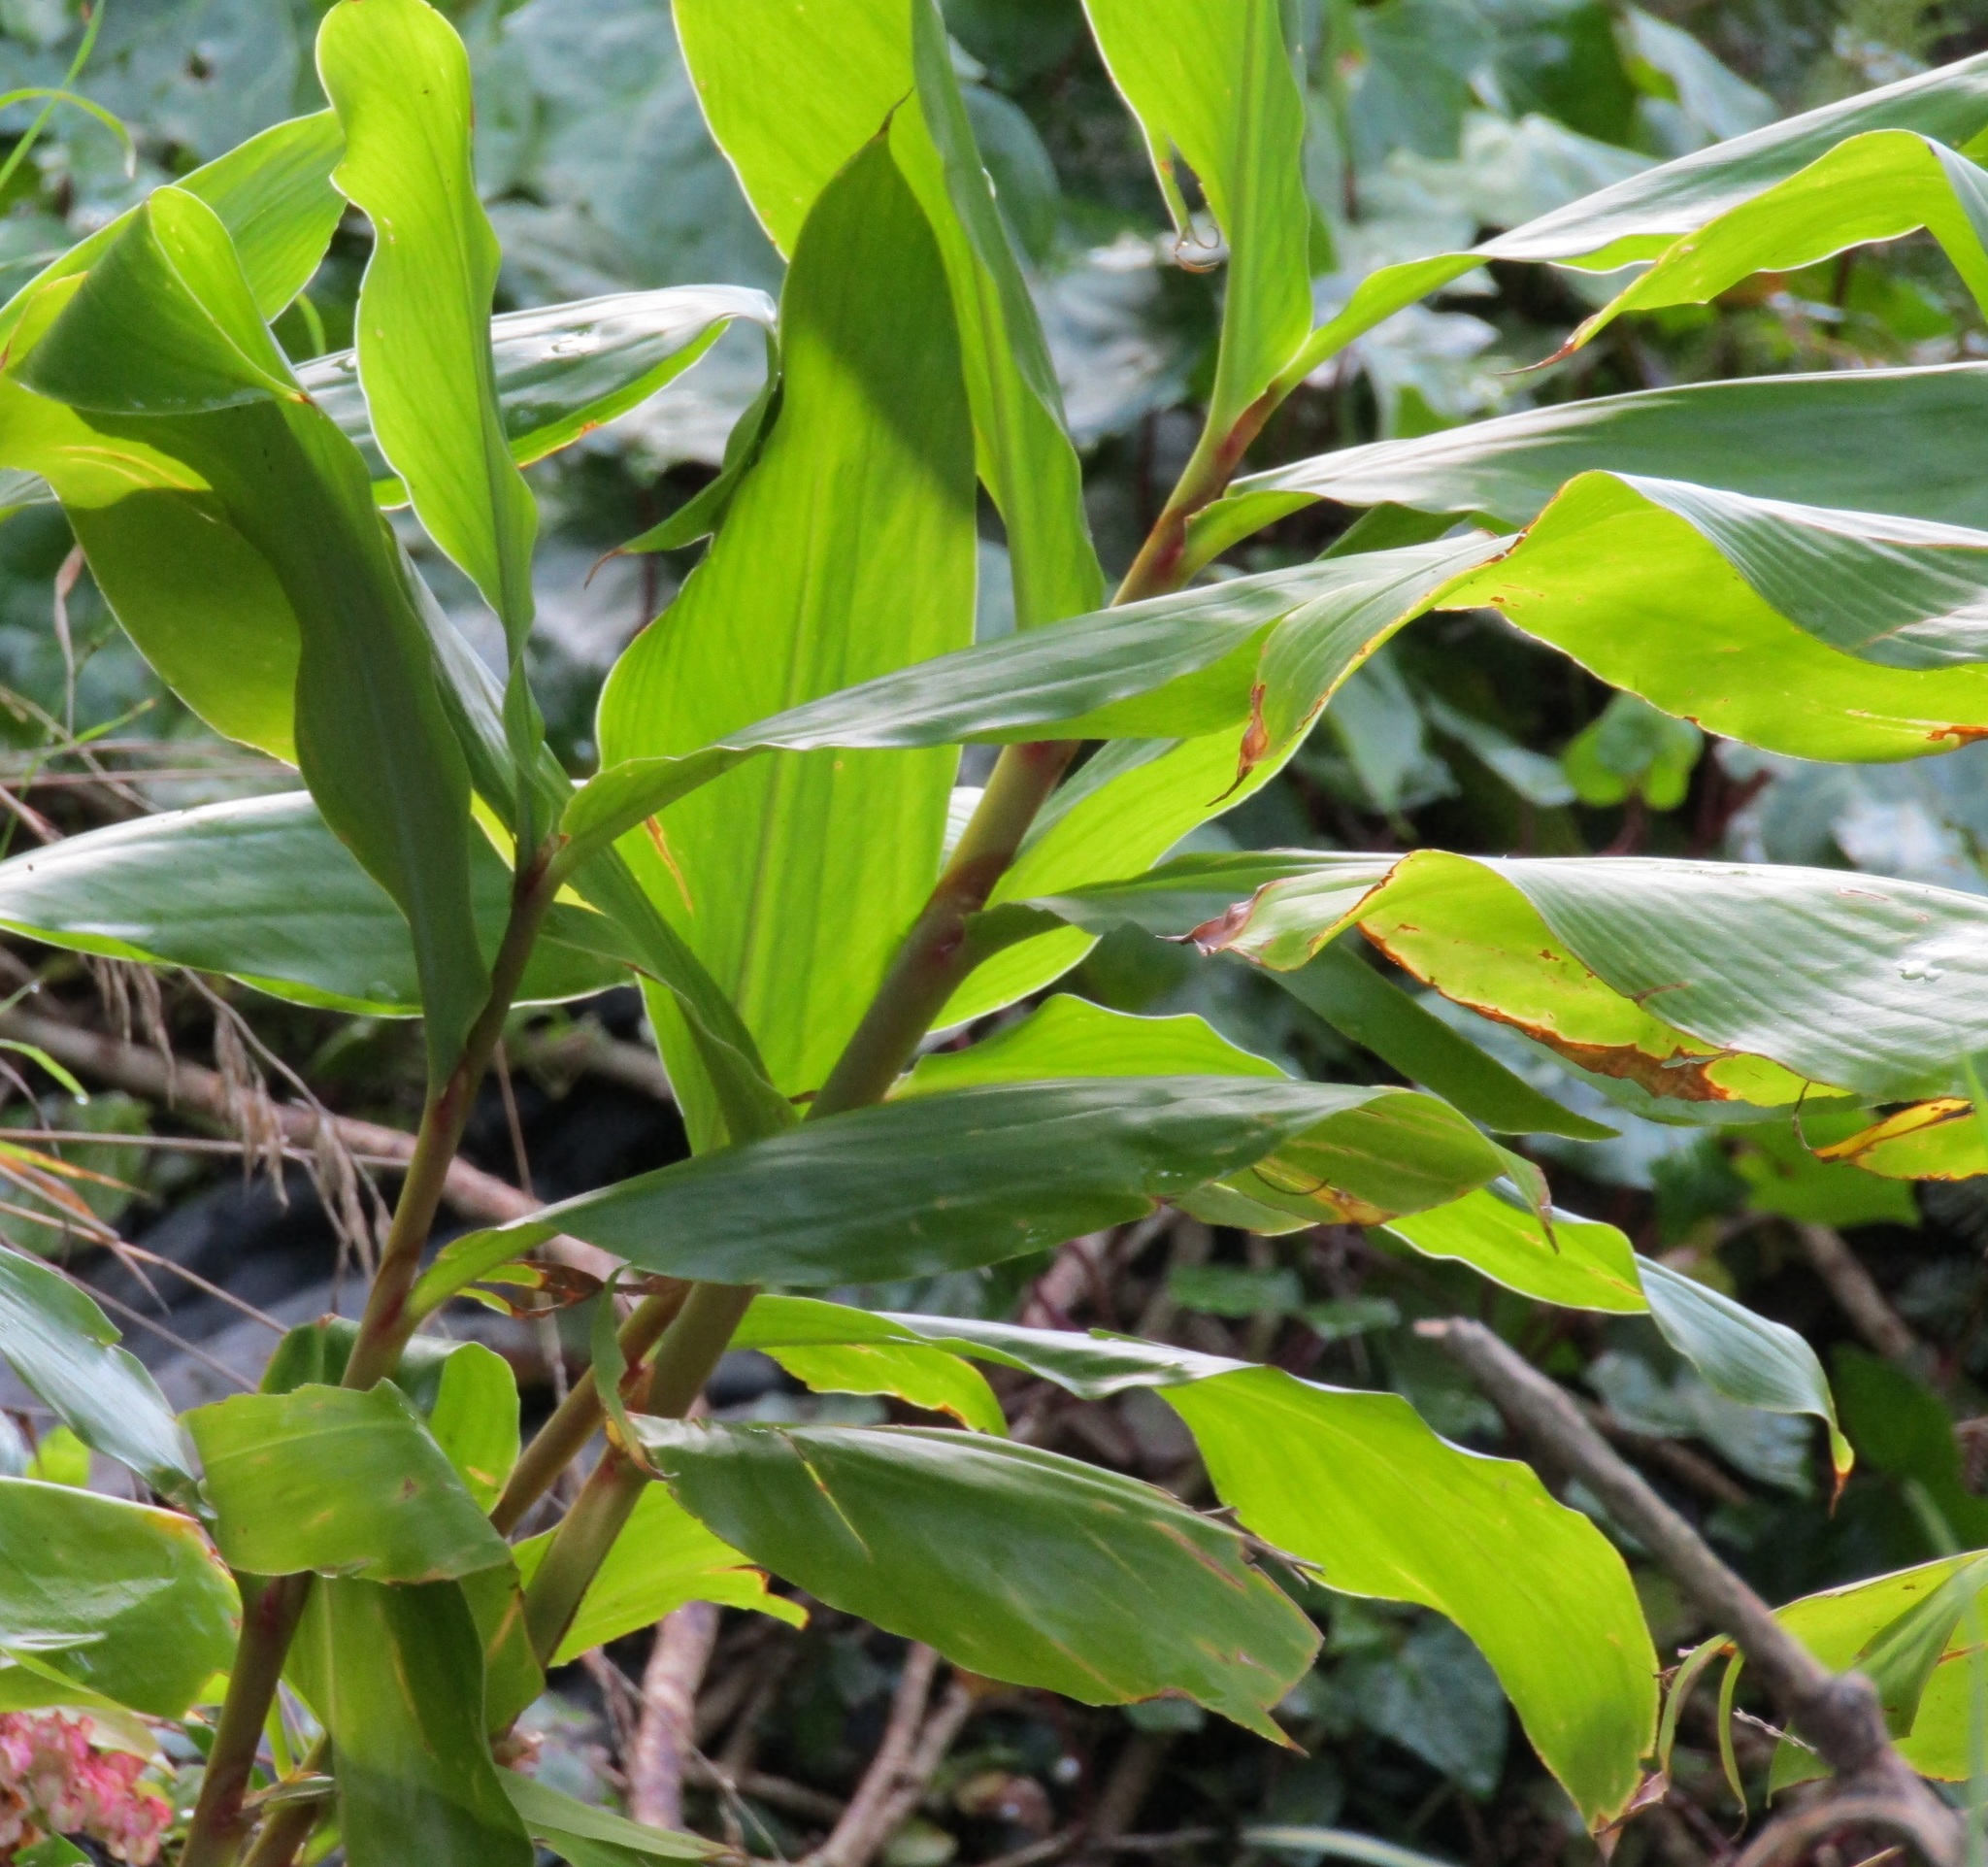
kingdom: Plantae
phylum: Tracheophyta
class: Liliopsida
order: Zingiberales
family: Zingiberaceae
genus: Hedychium
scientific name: Hedychium gardnerianum
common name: Himalayan ginger
